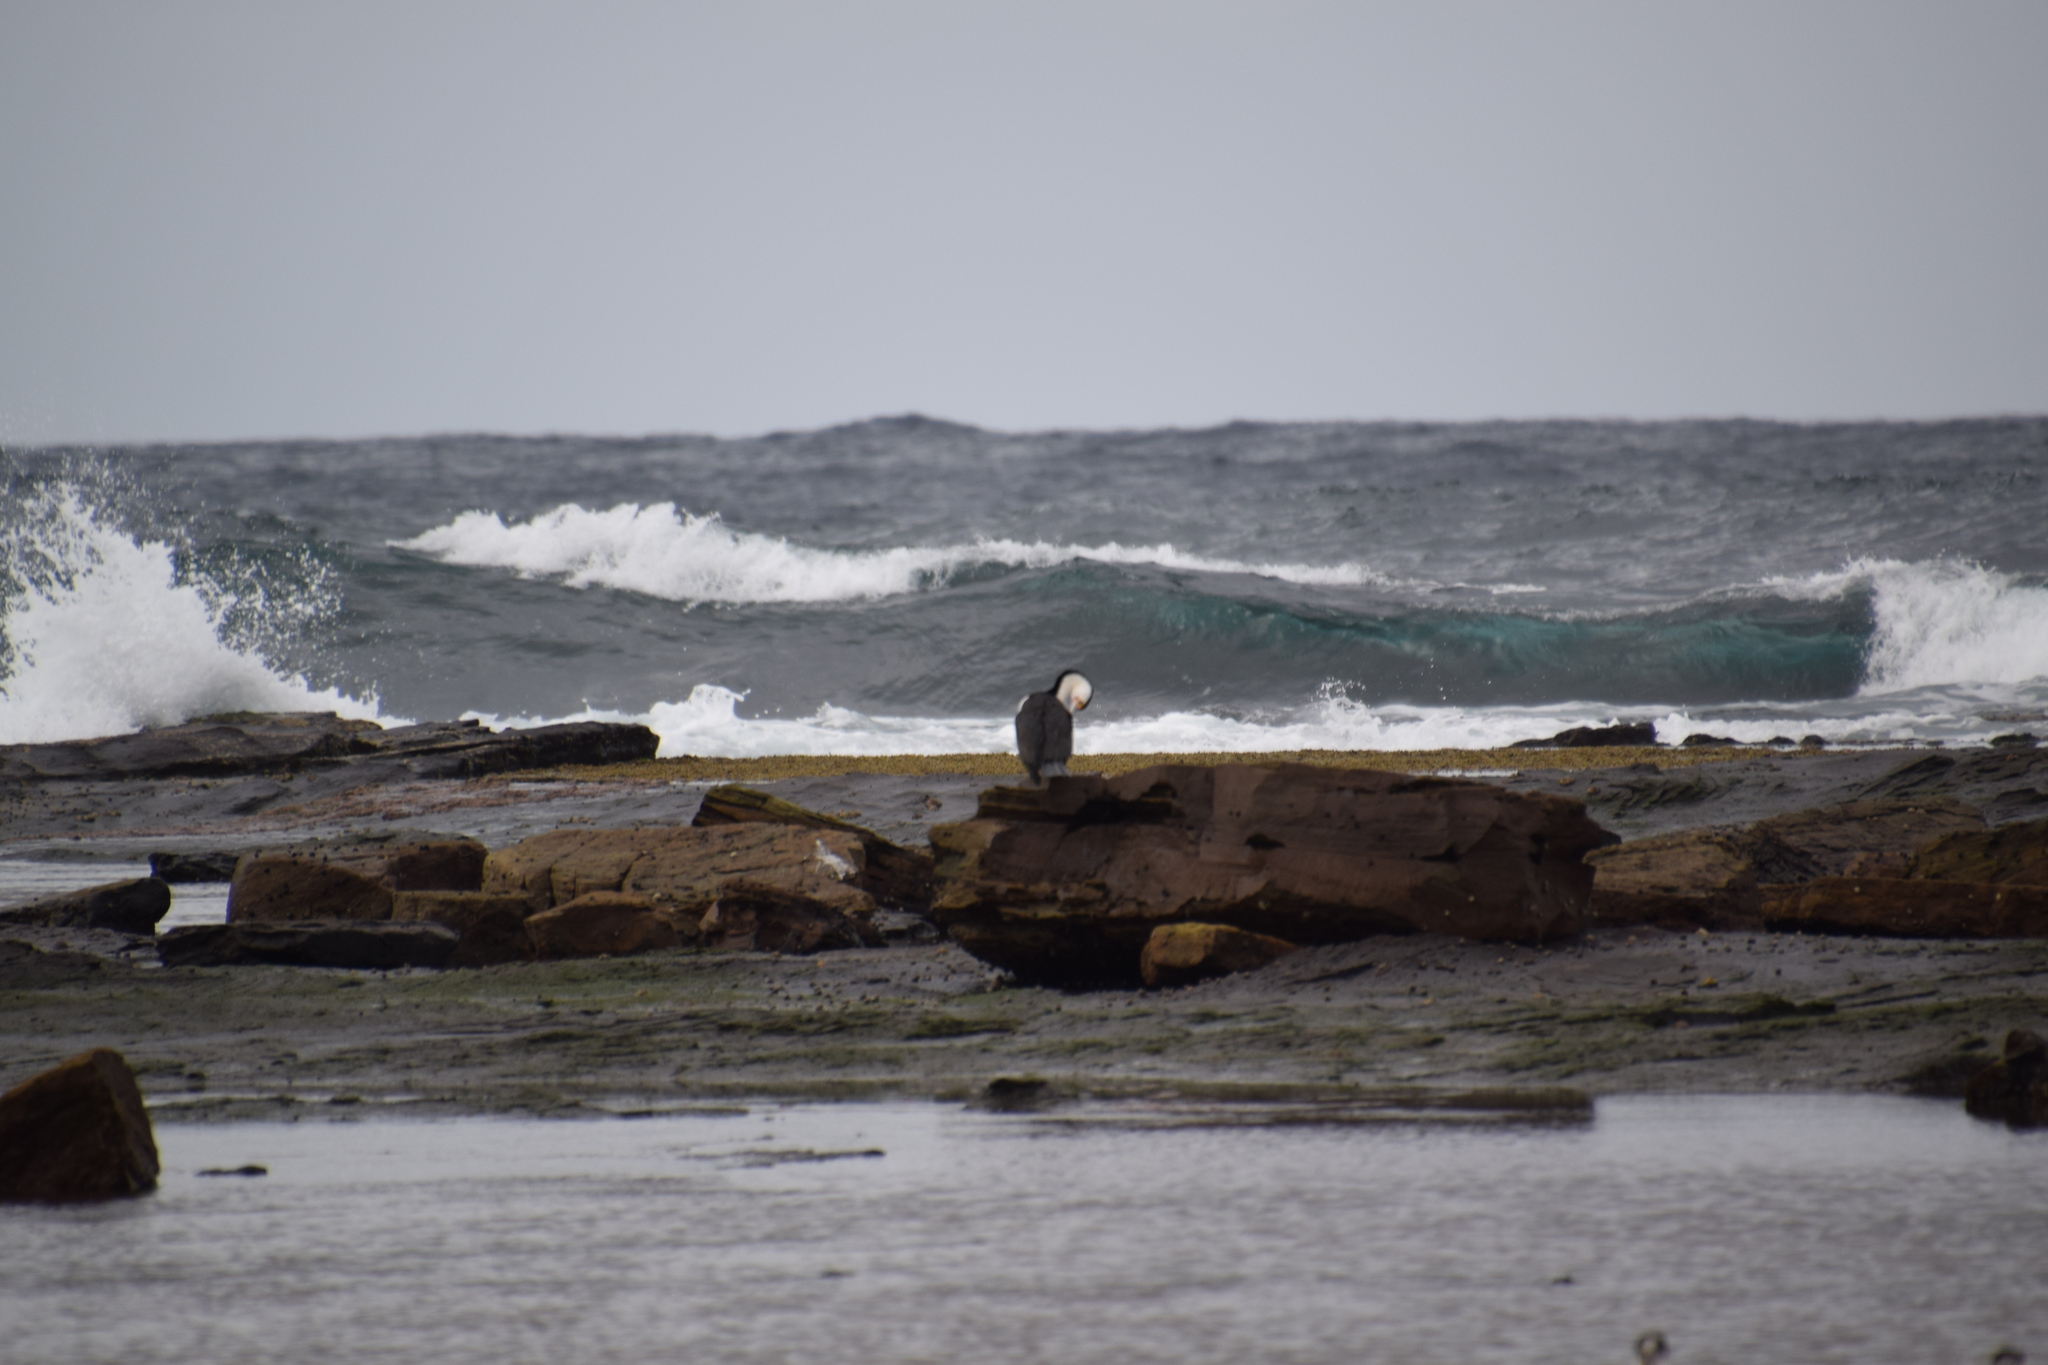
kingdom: Animalia
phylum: Chordata
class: Aves
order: Suliformes
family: Phalacrocoracidae
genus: Phalacrocorax
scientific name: Phalacrocorax varius
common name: Pied cormorant
